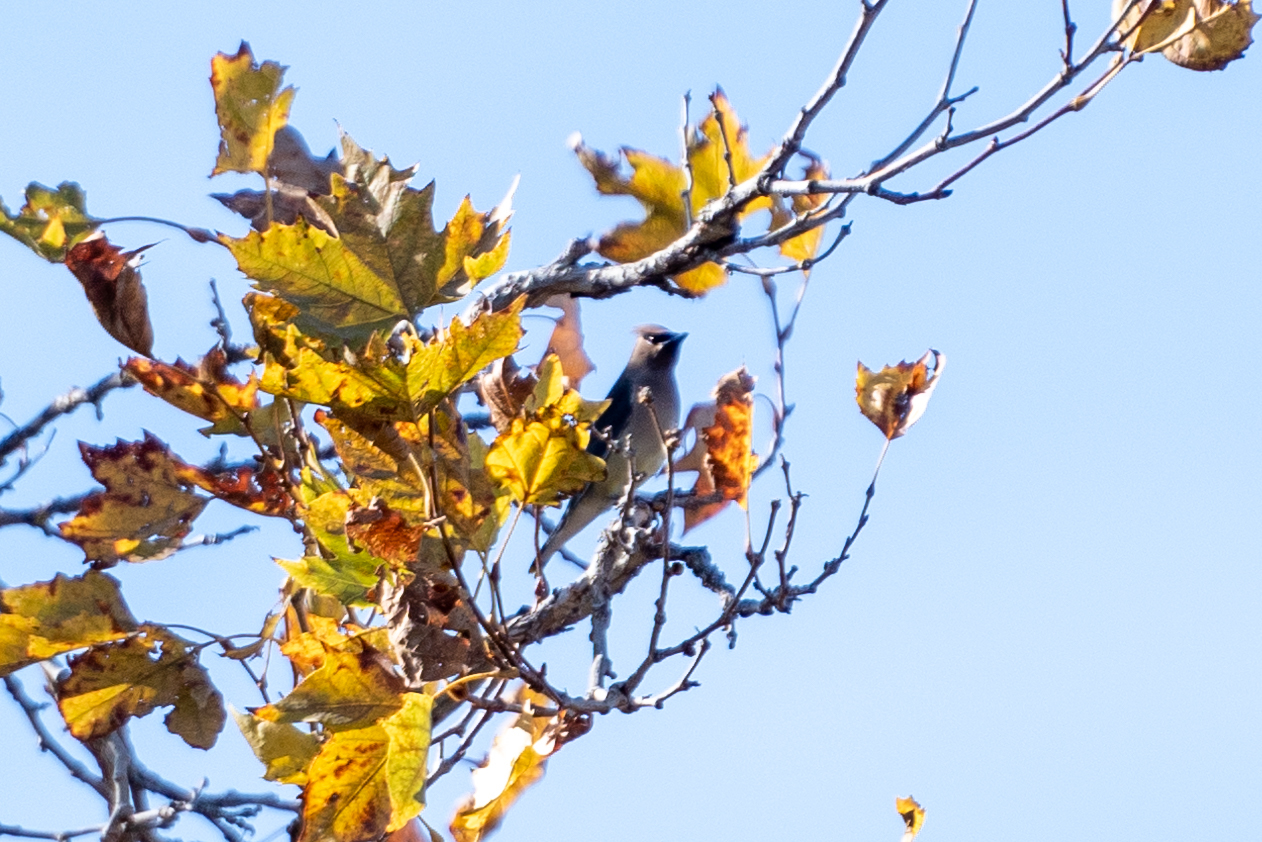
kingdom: Animalia
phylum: Chordata
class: Aves
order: Passeriformes
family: Bombycillidae
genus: Bombycilla
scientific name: Bombycilla cedrorum
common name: Cedar waxwing
